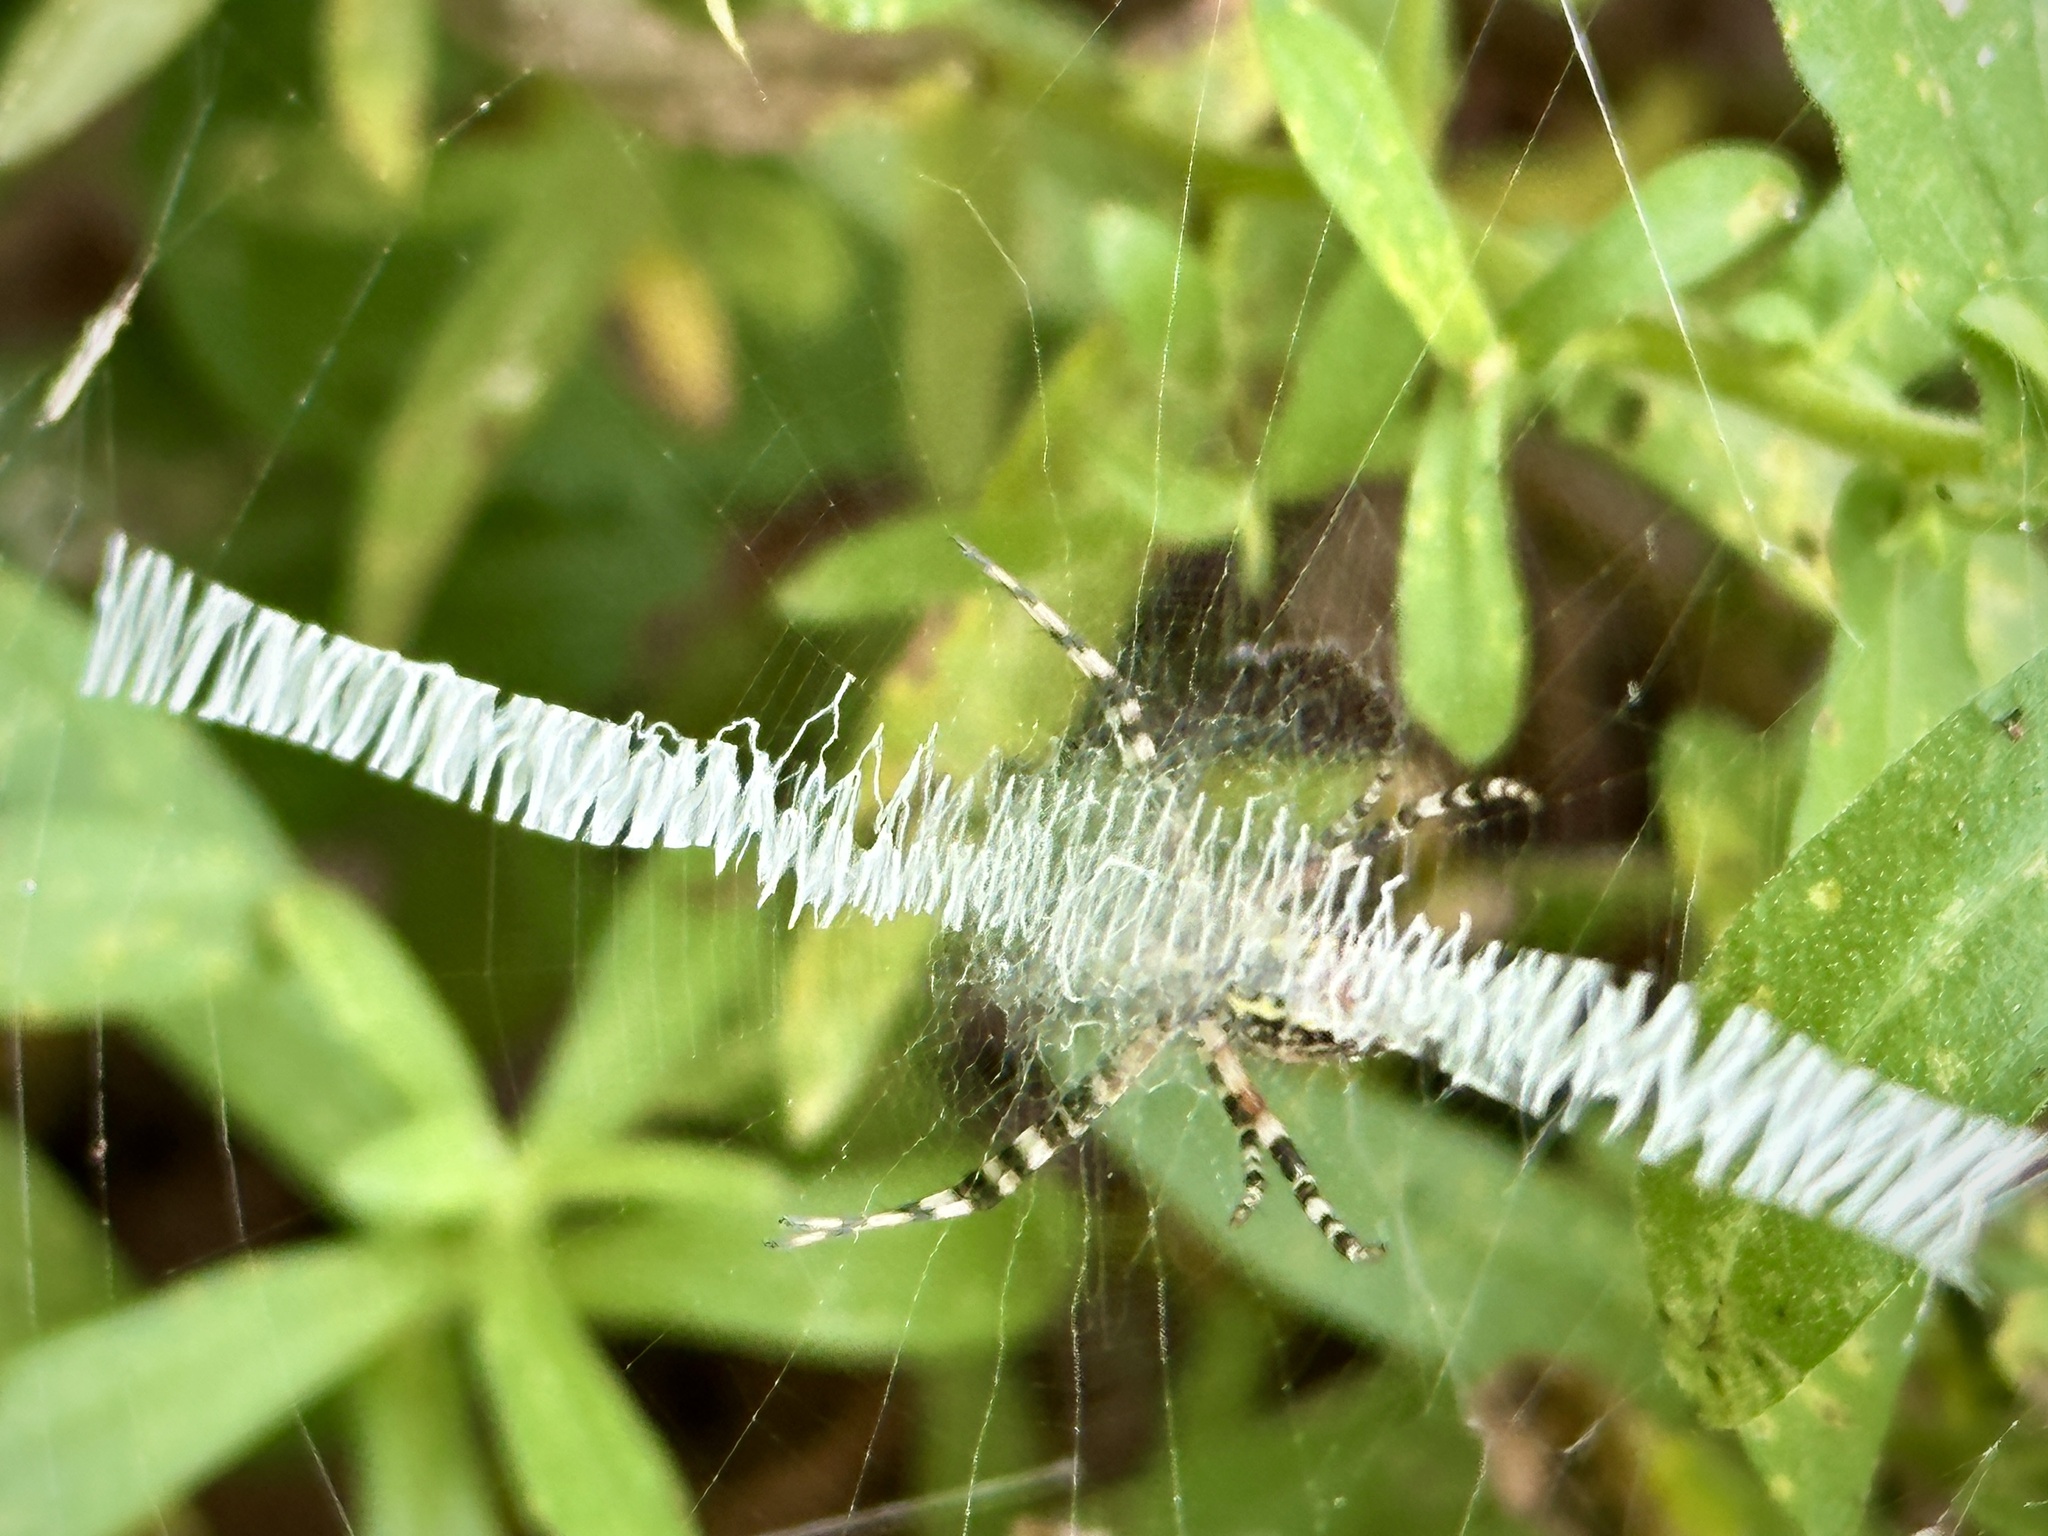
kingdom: Animalia
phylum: Arthropoda
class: Arachnida
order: Araneae
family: Araneidae
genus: Argiope
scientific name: Argiope aurantia
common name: Orb weavers
